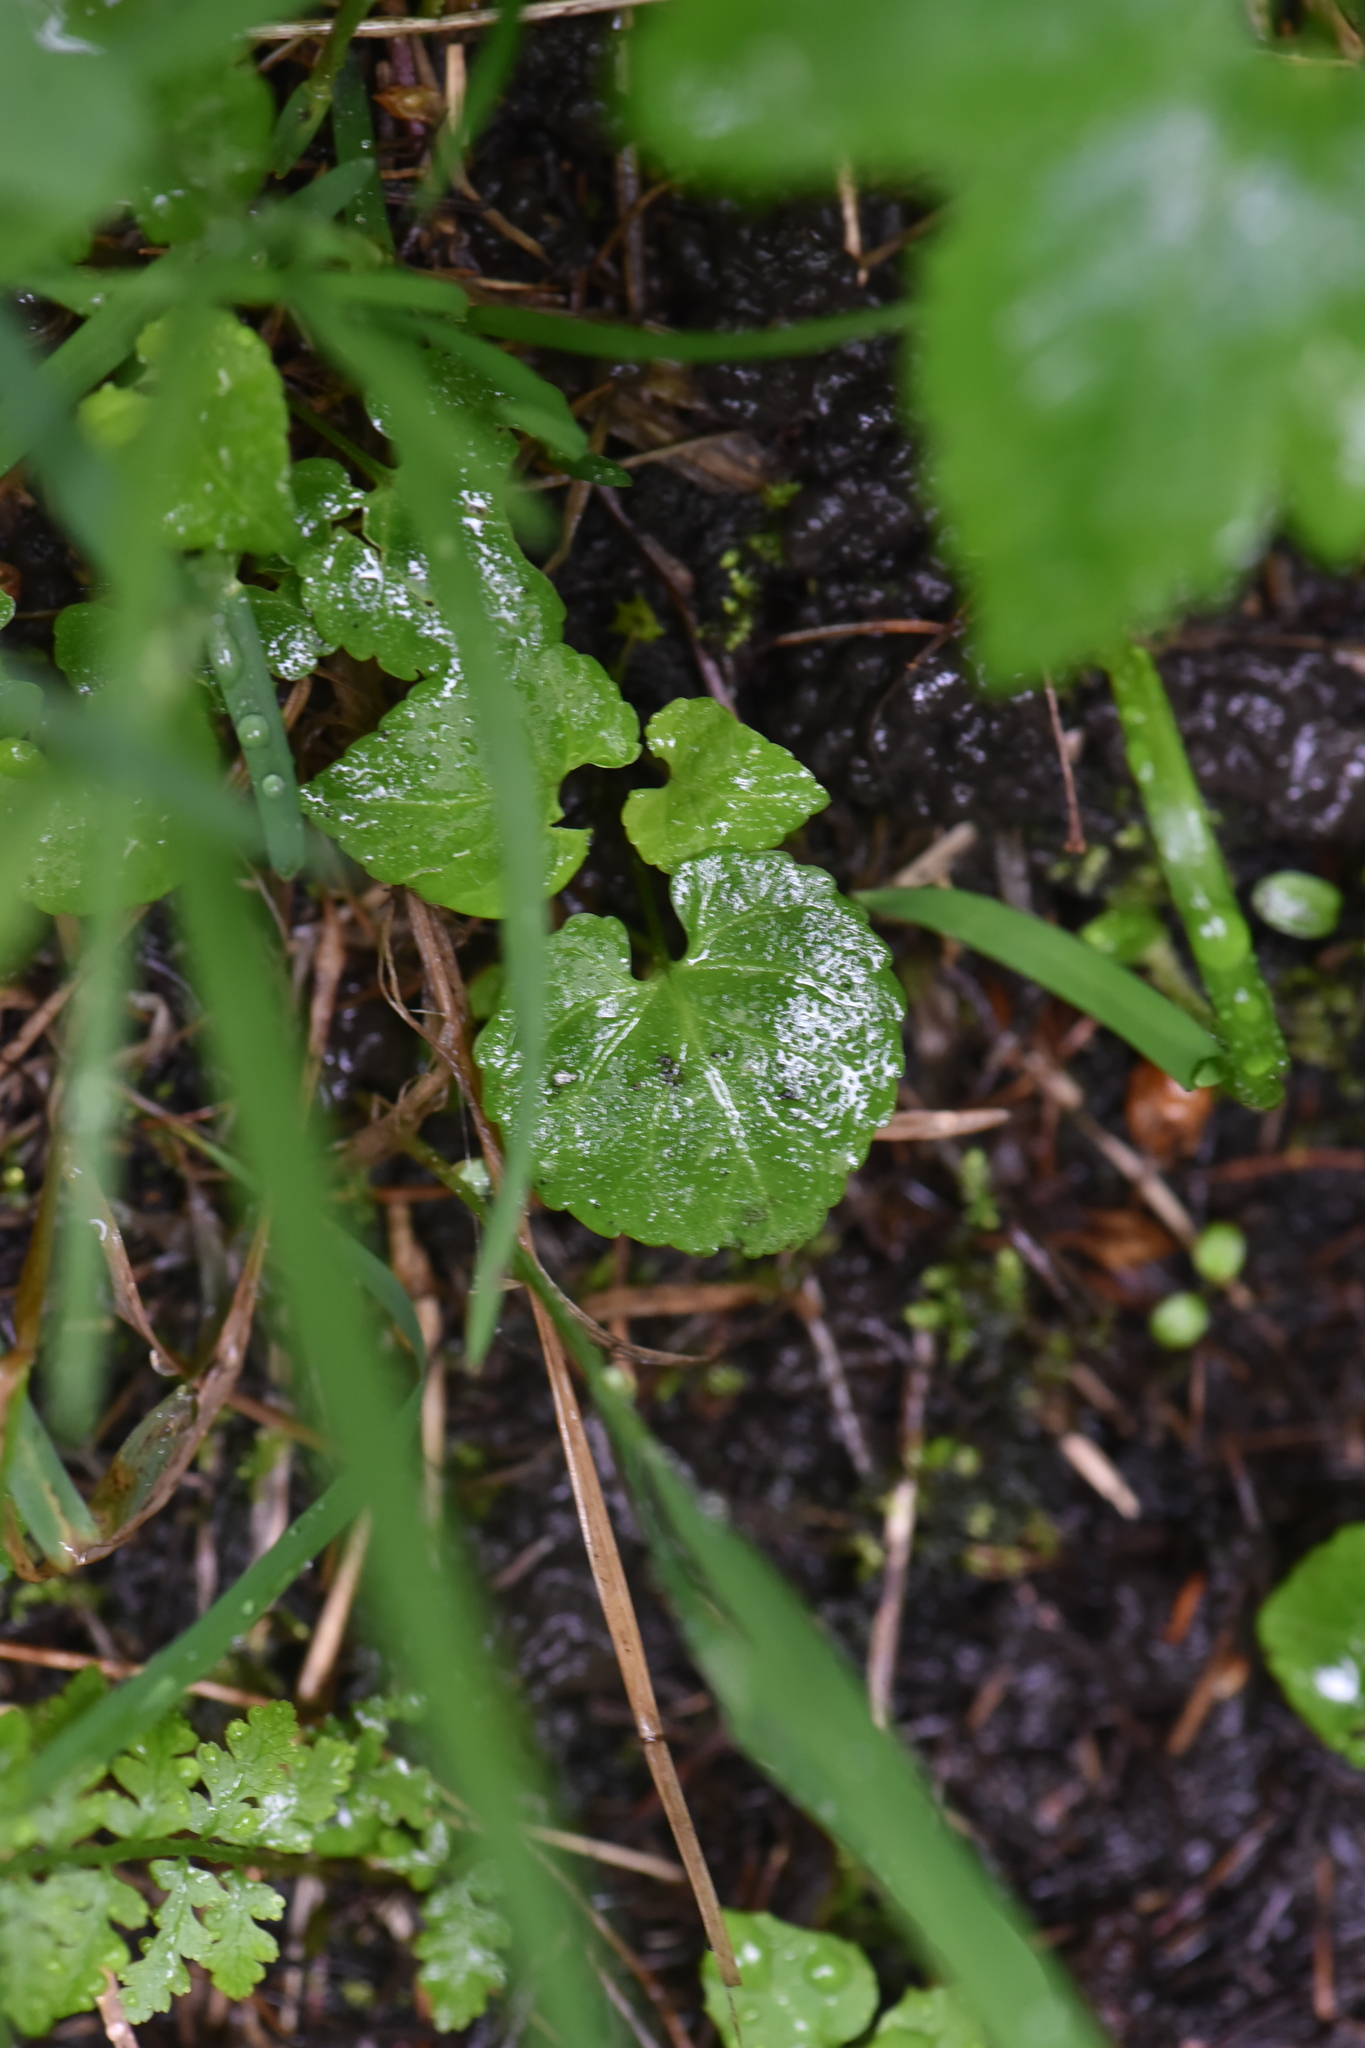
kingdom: Plantae
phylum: Tracheophyta
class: Magnoliopsida
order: Malpighiales
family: Violaceae
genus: Viola
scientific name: Viola glabella
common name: Stream violet
